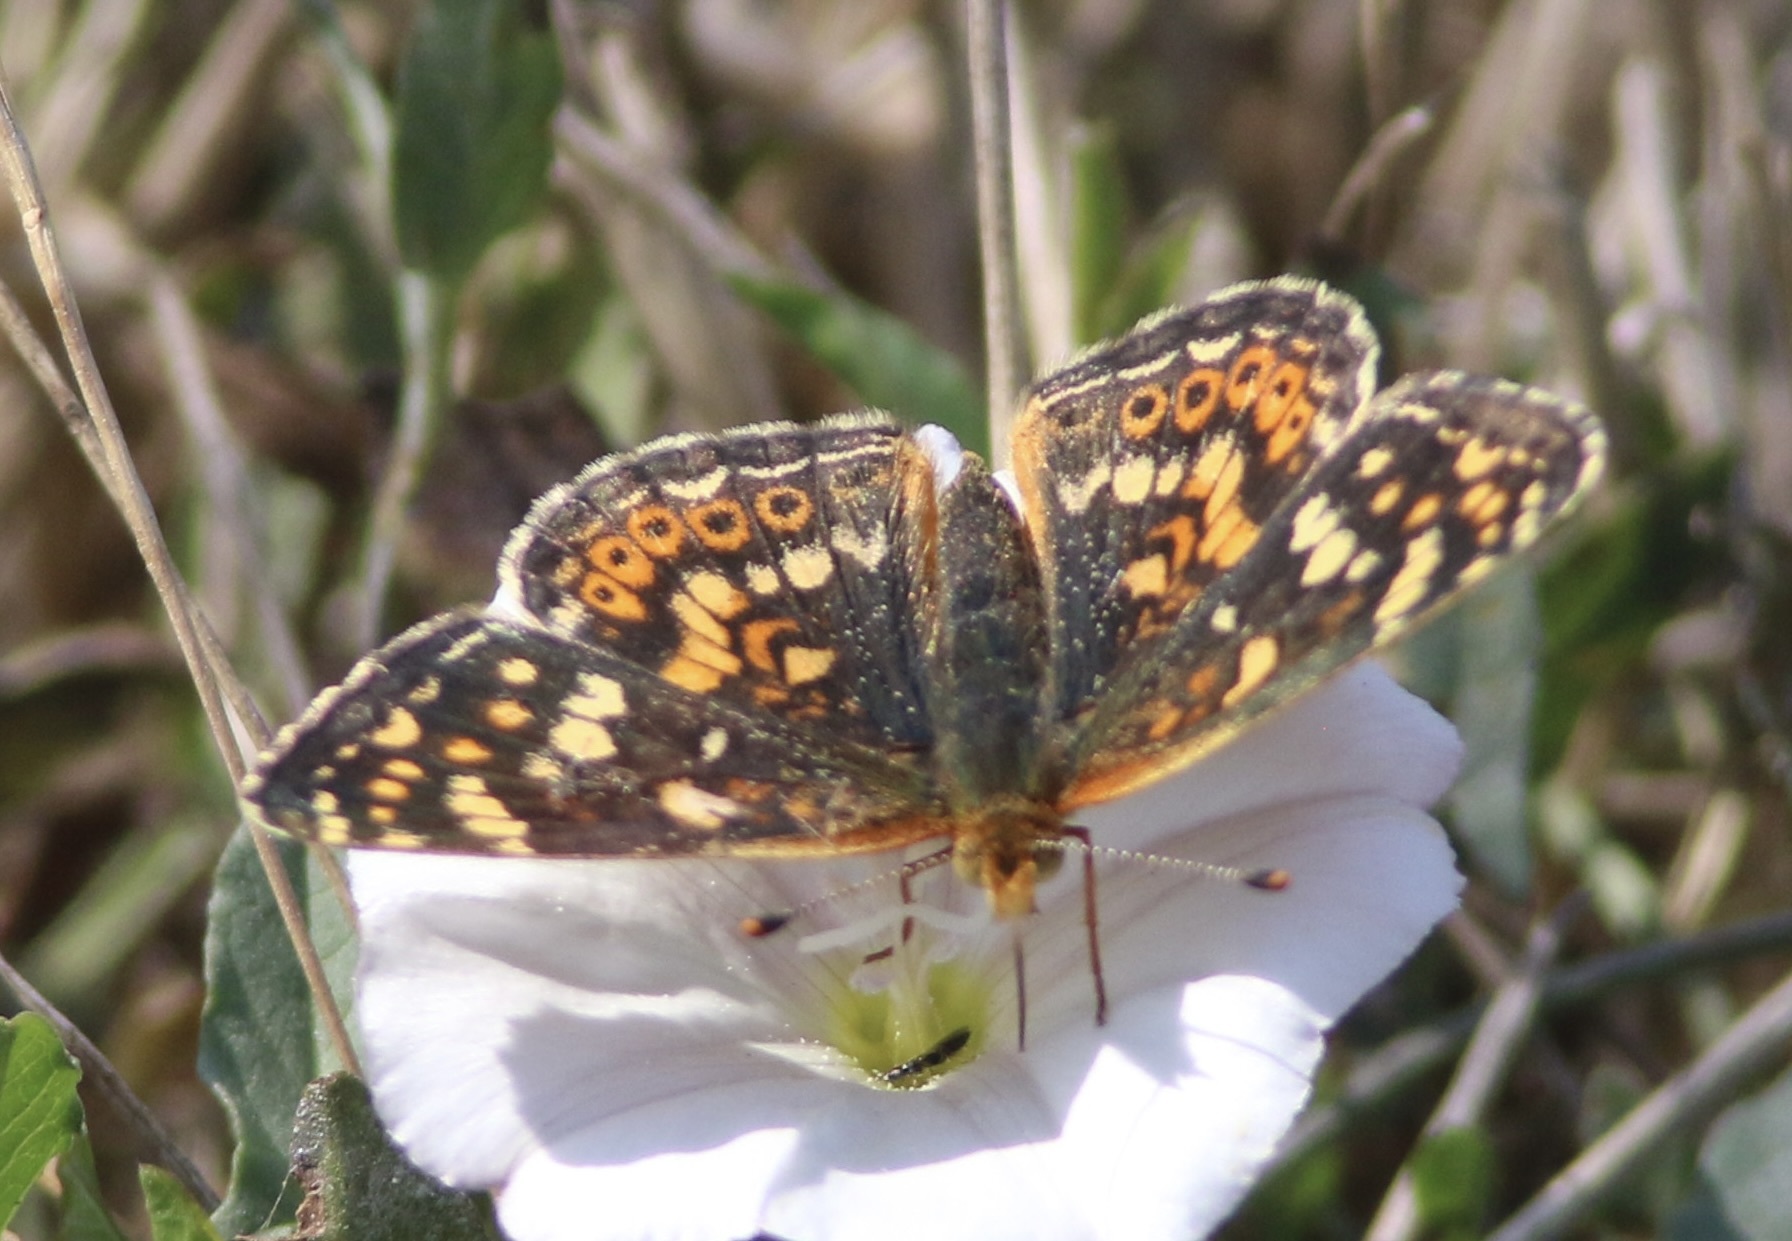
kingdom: Animalia
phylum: Arthropoda
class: Insecta
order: Lepidoptera
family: Nymphalidae
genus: Phyciodes
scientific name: Phyciodes tharos
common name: Pearl crescent
